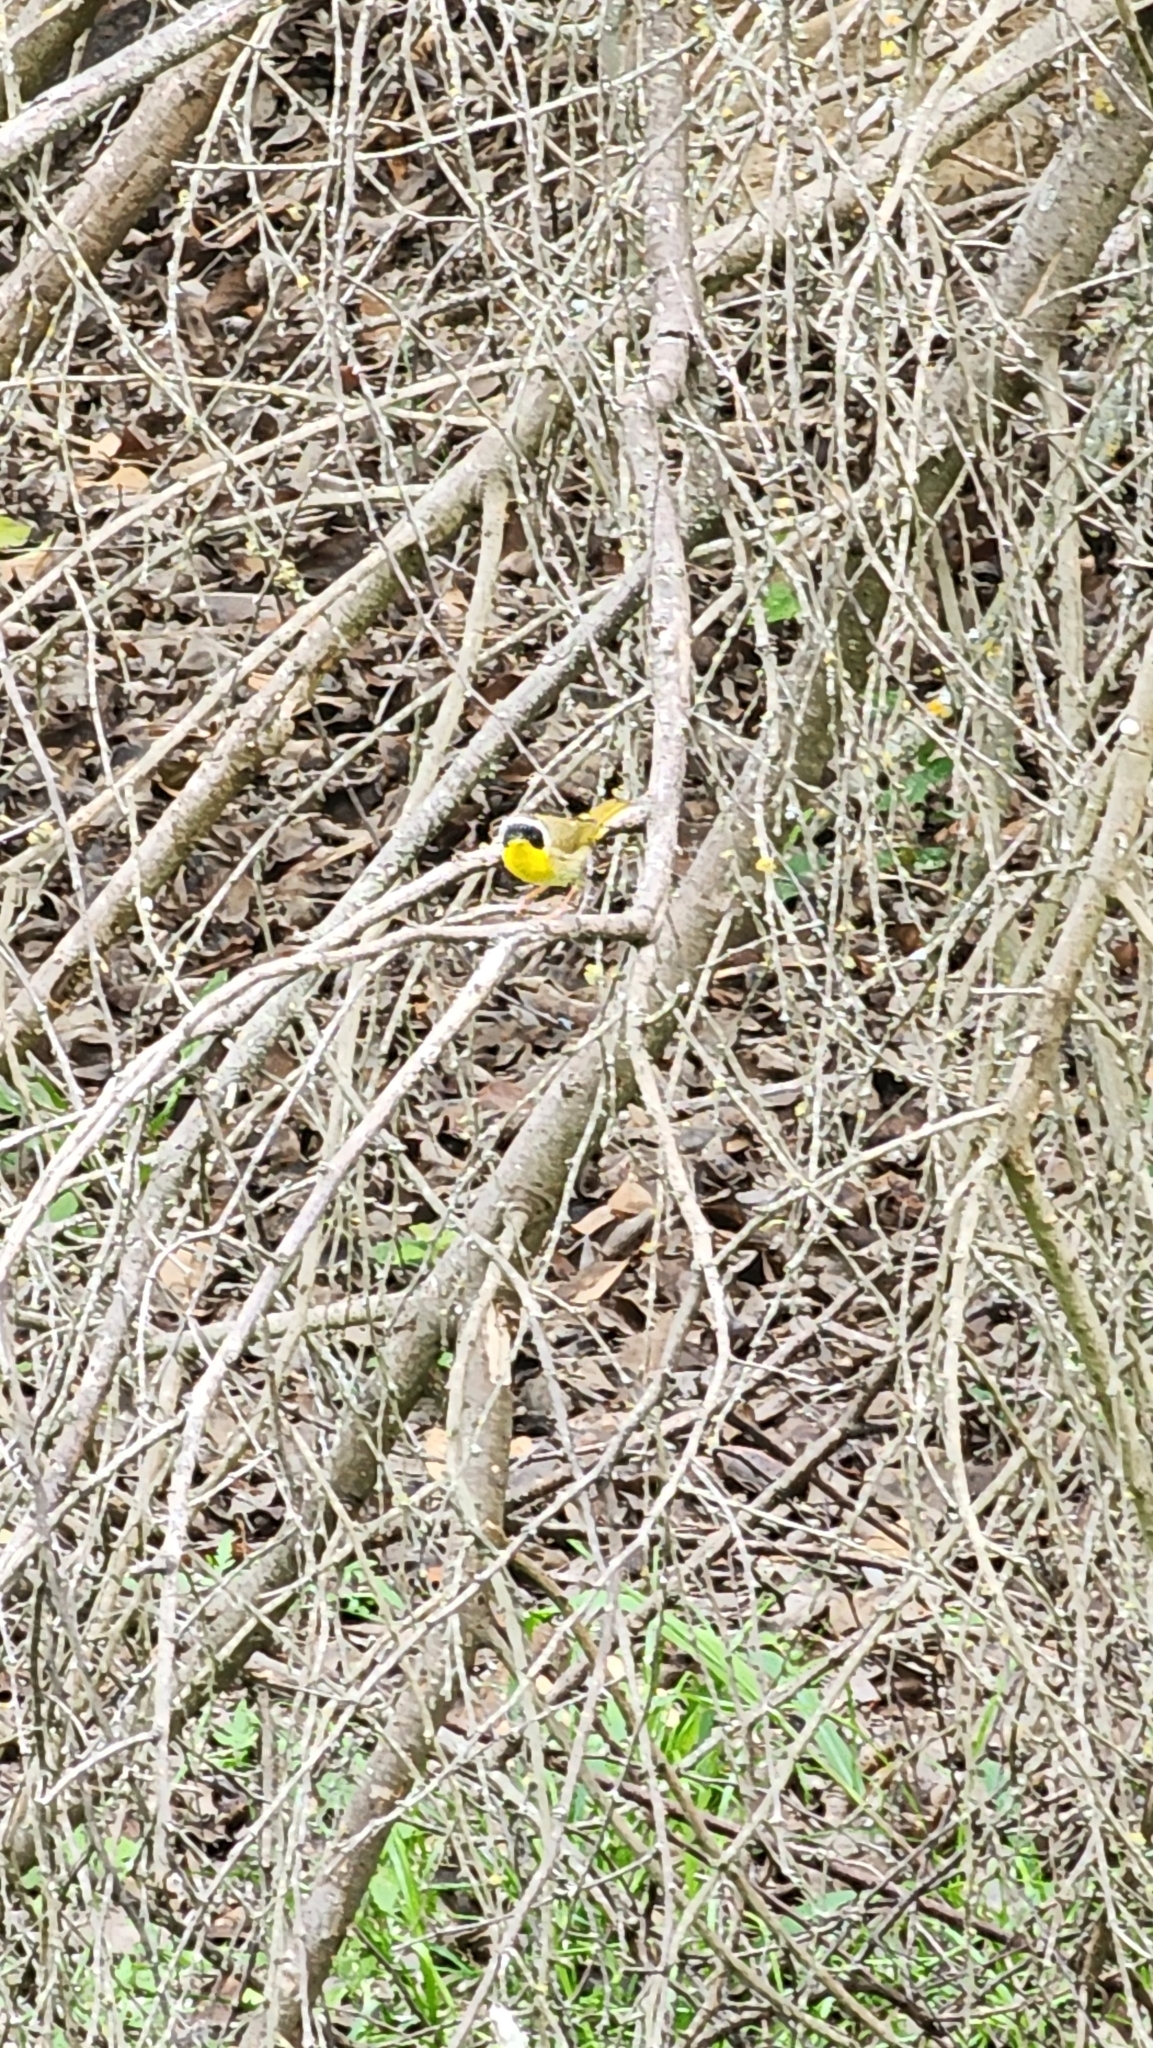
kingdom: Animalia
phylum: Chordata
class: Aves
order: Passeriformes
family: Parulidae
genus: Geothlypis
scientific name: Geothlypis trichas
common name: Common yellowthroat
